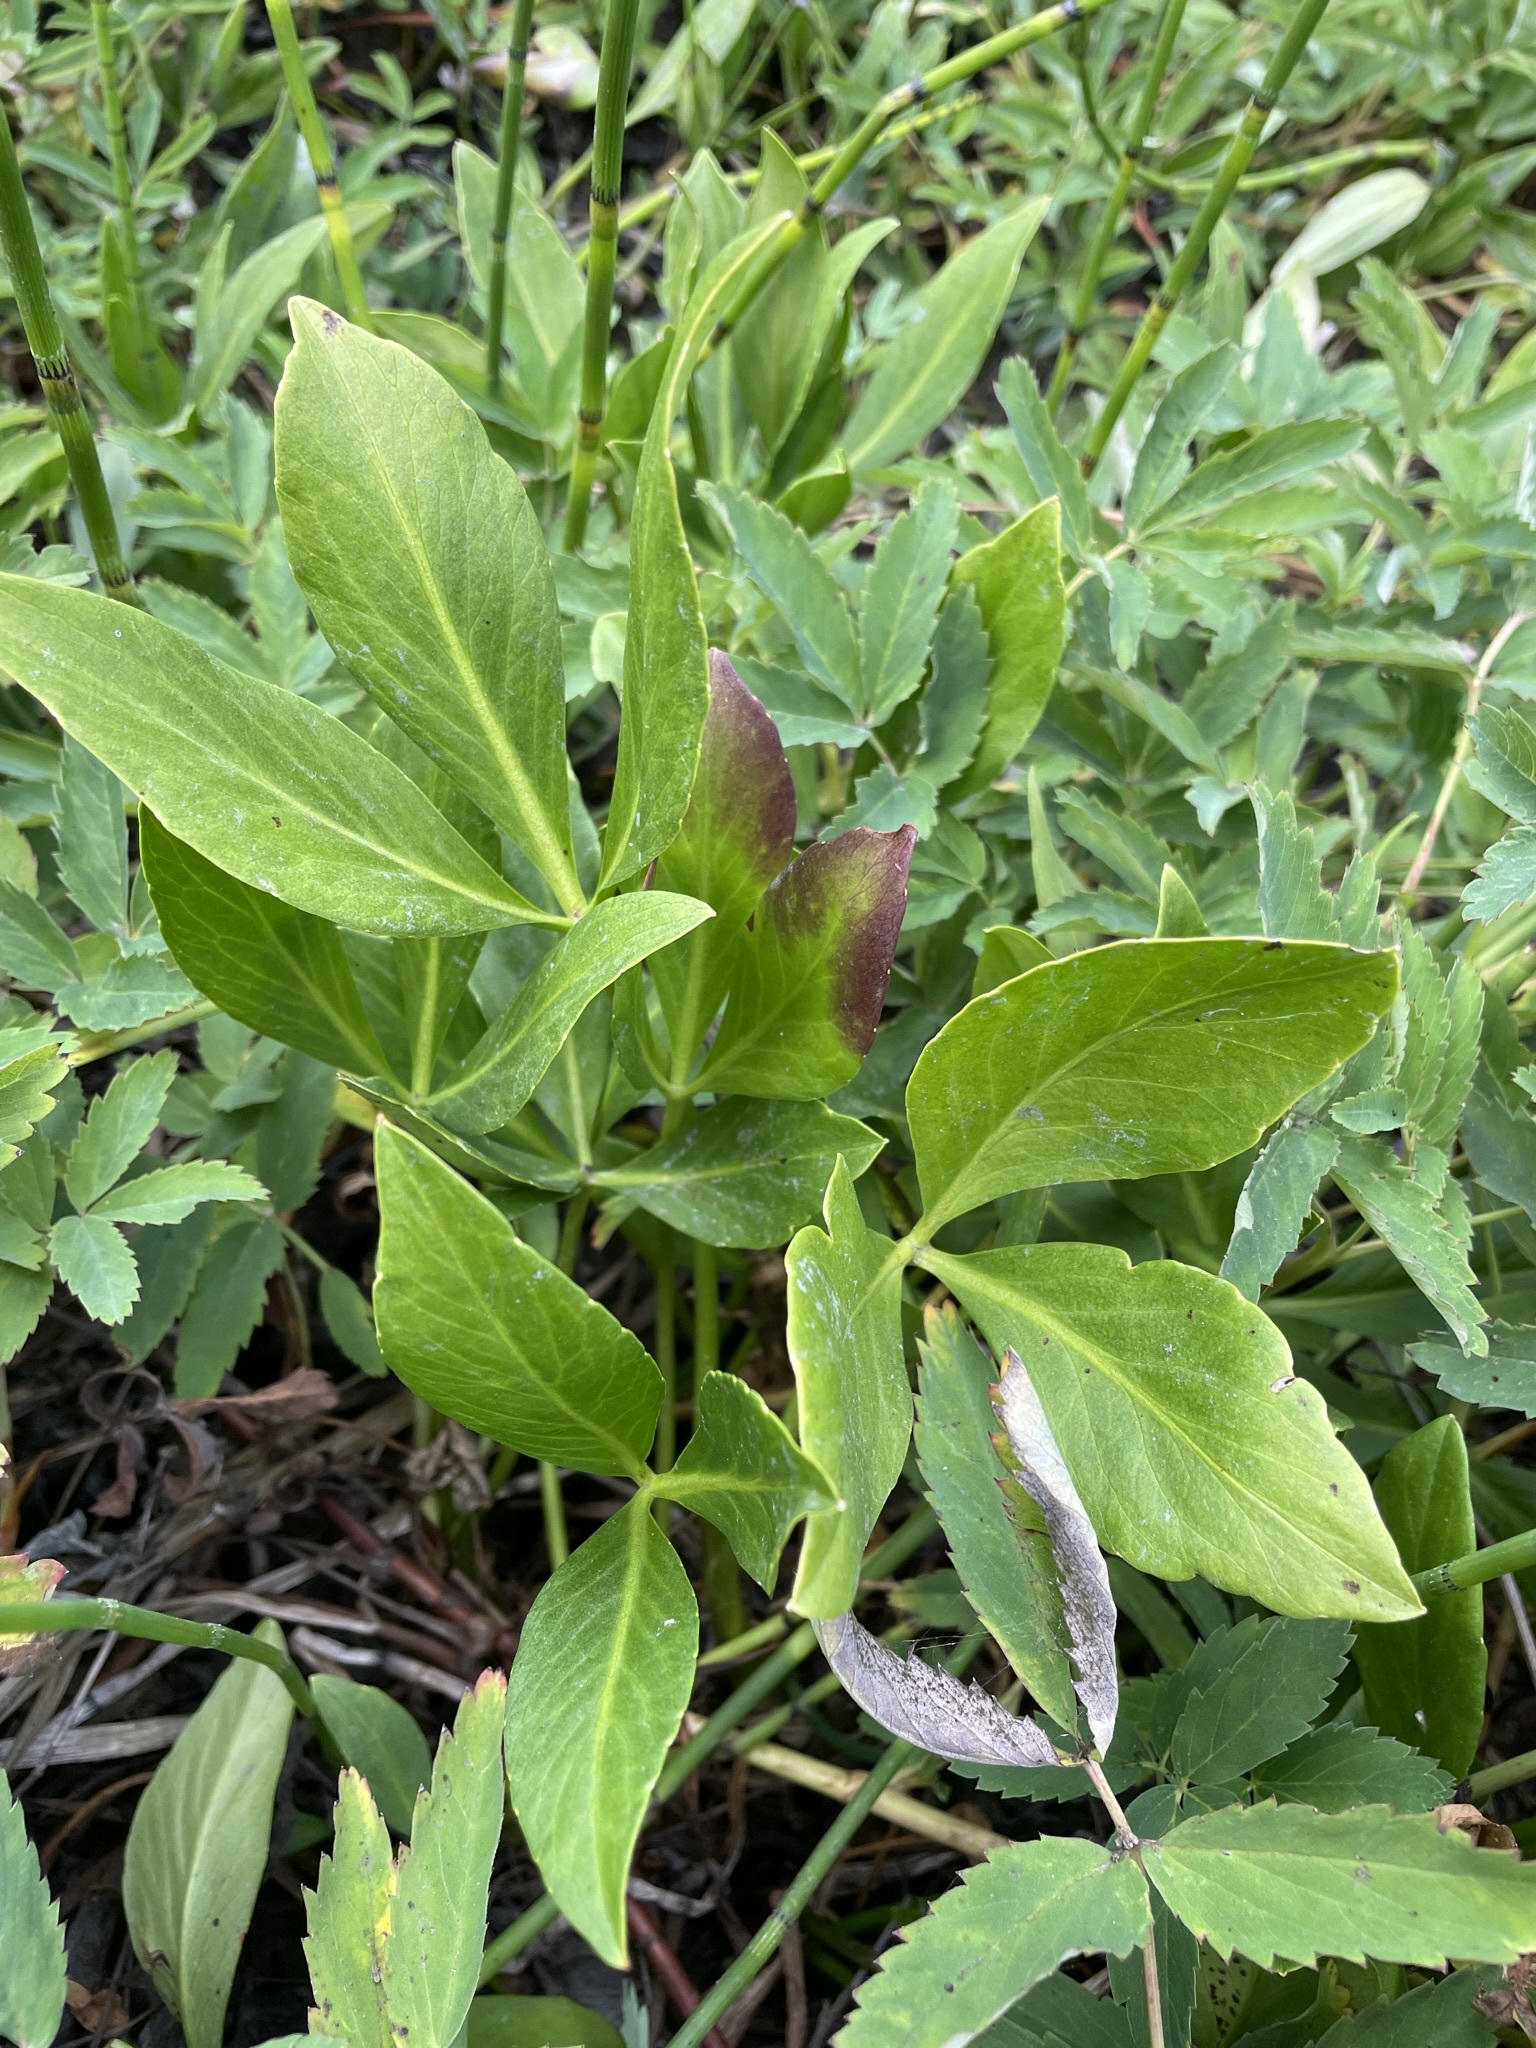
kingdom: Plantae
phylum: Tracheophyta
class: Magnoliopsida
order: Asterales
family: Menyanthaceae
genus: Menyanthes
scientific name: Menyanthes trifoliata
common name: Bogbean
